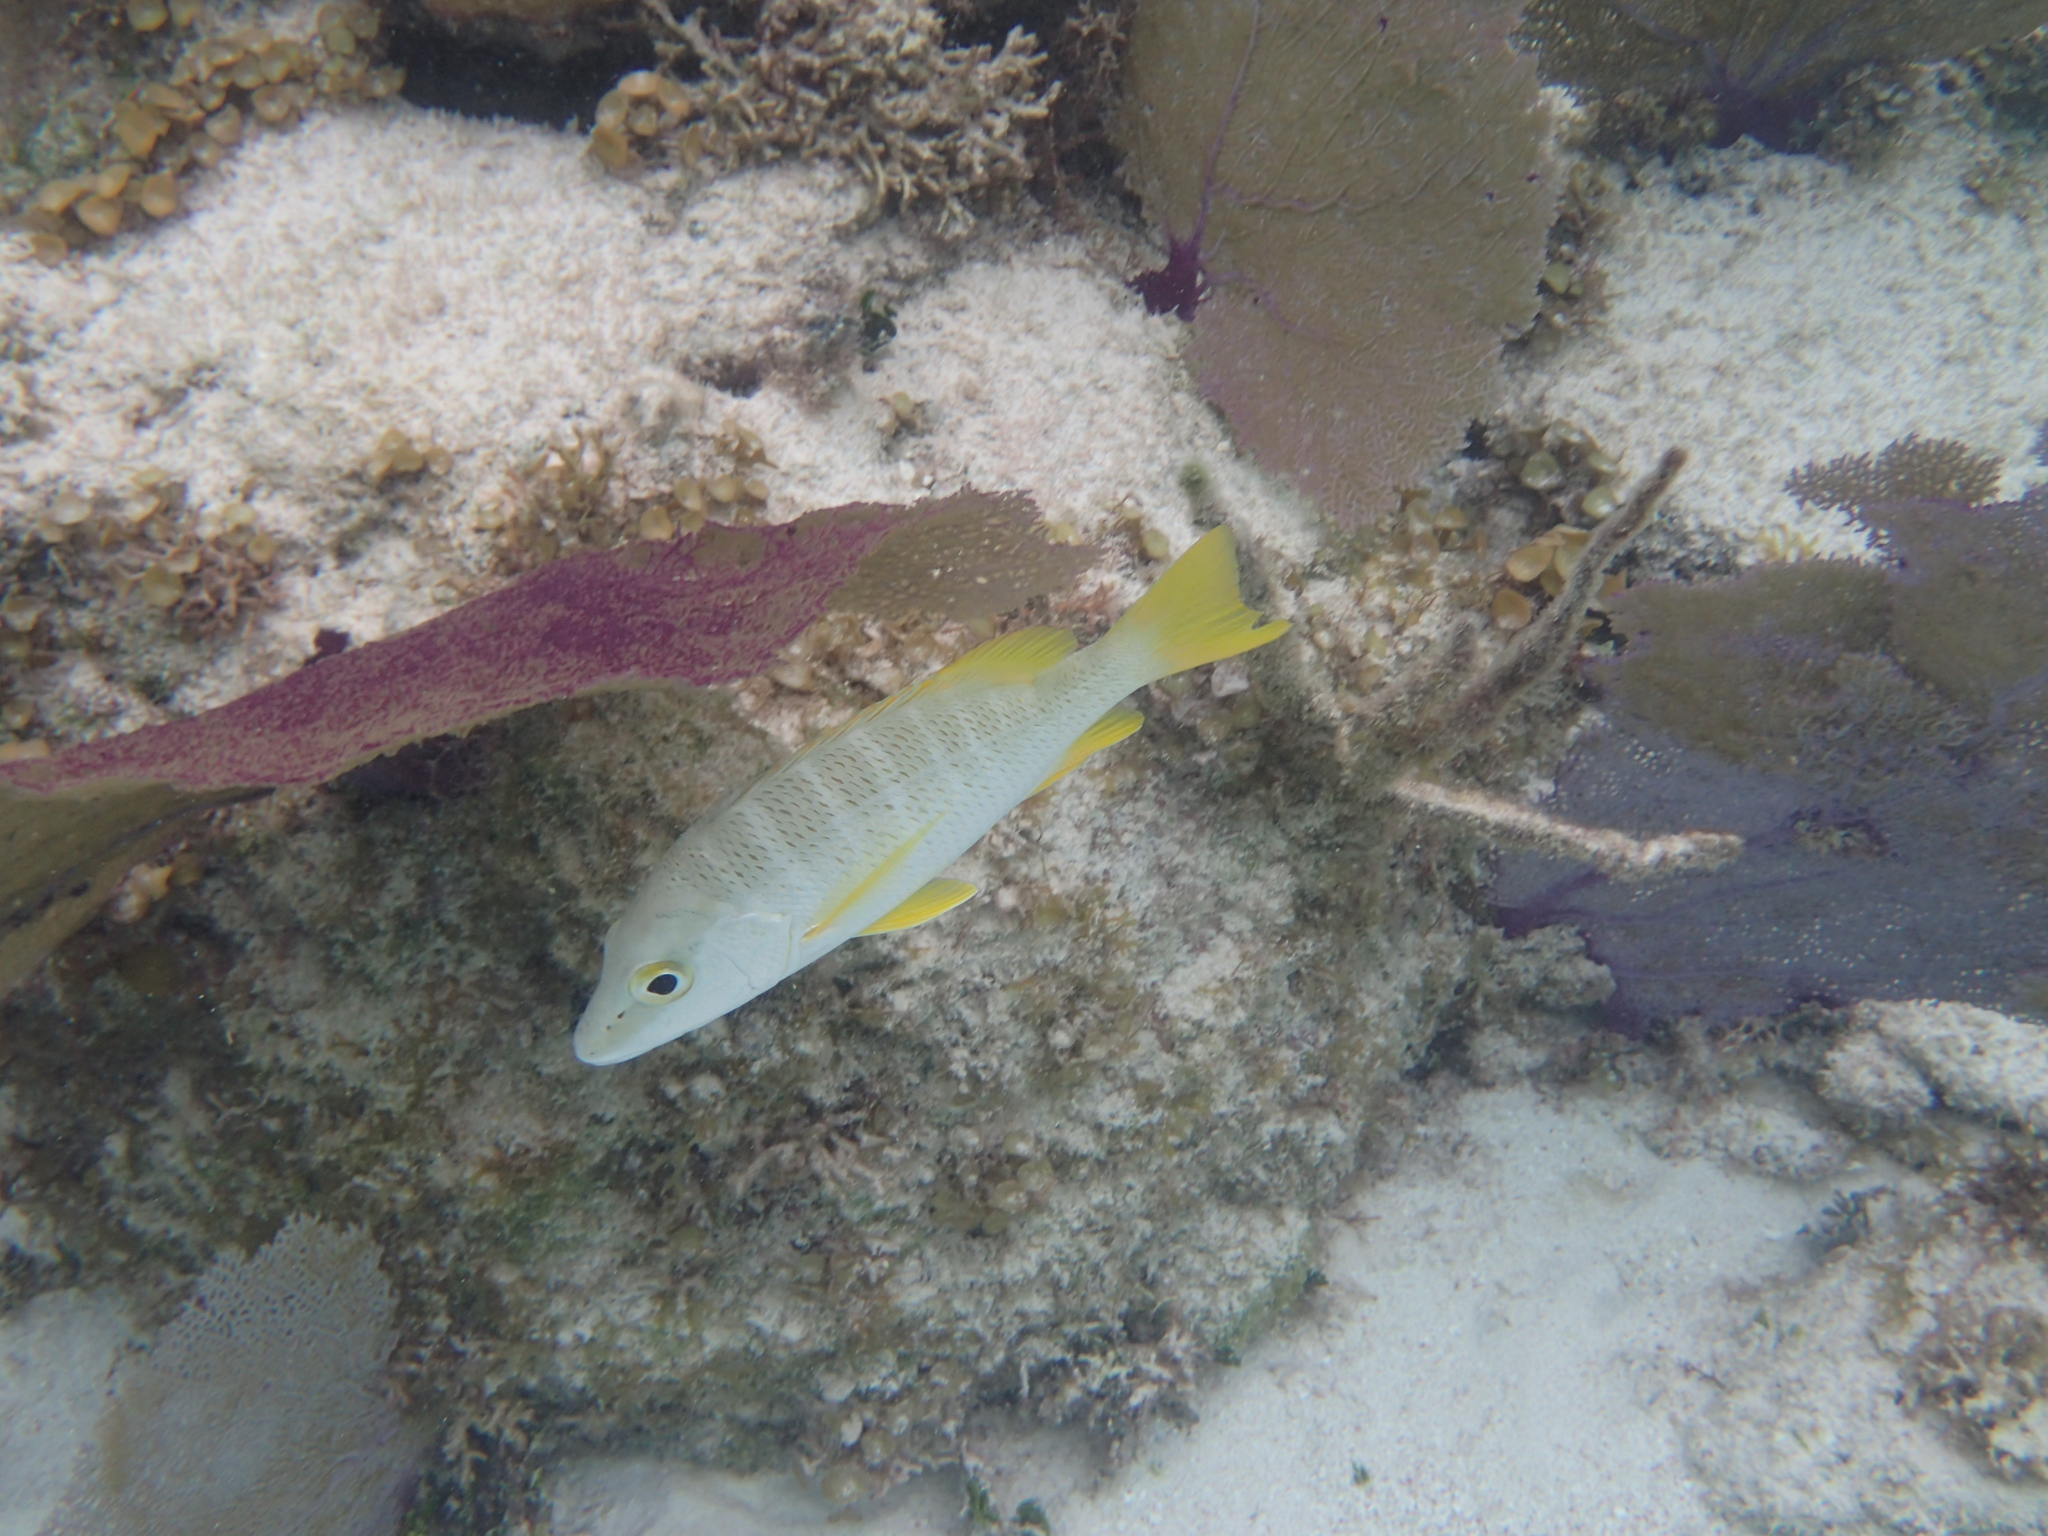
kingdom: Animalia
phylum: Chordata
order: Perciformes
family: Lutjanidae
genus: Lutjanus
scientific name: Lutjanus apodus
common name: Schoolmaster
